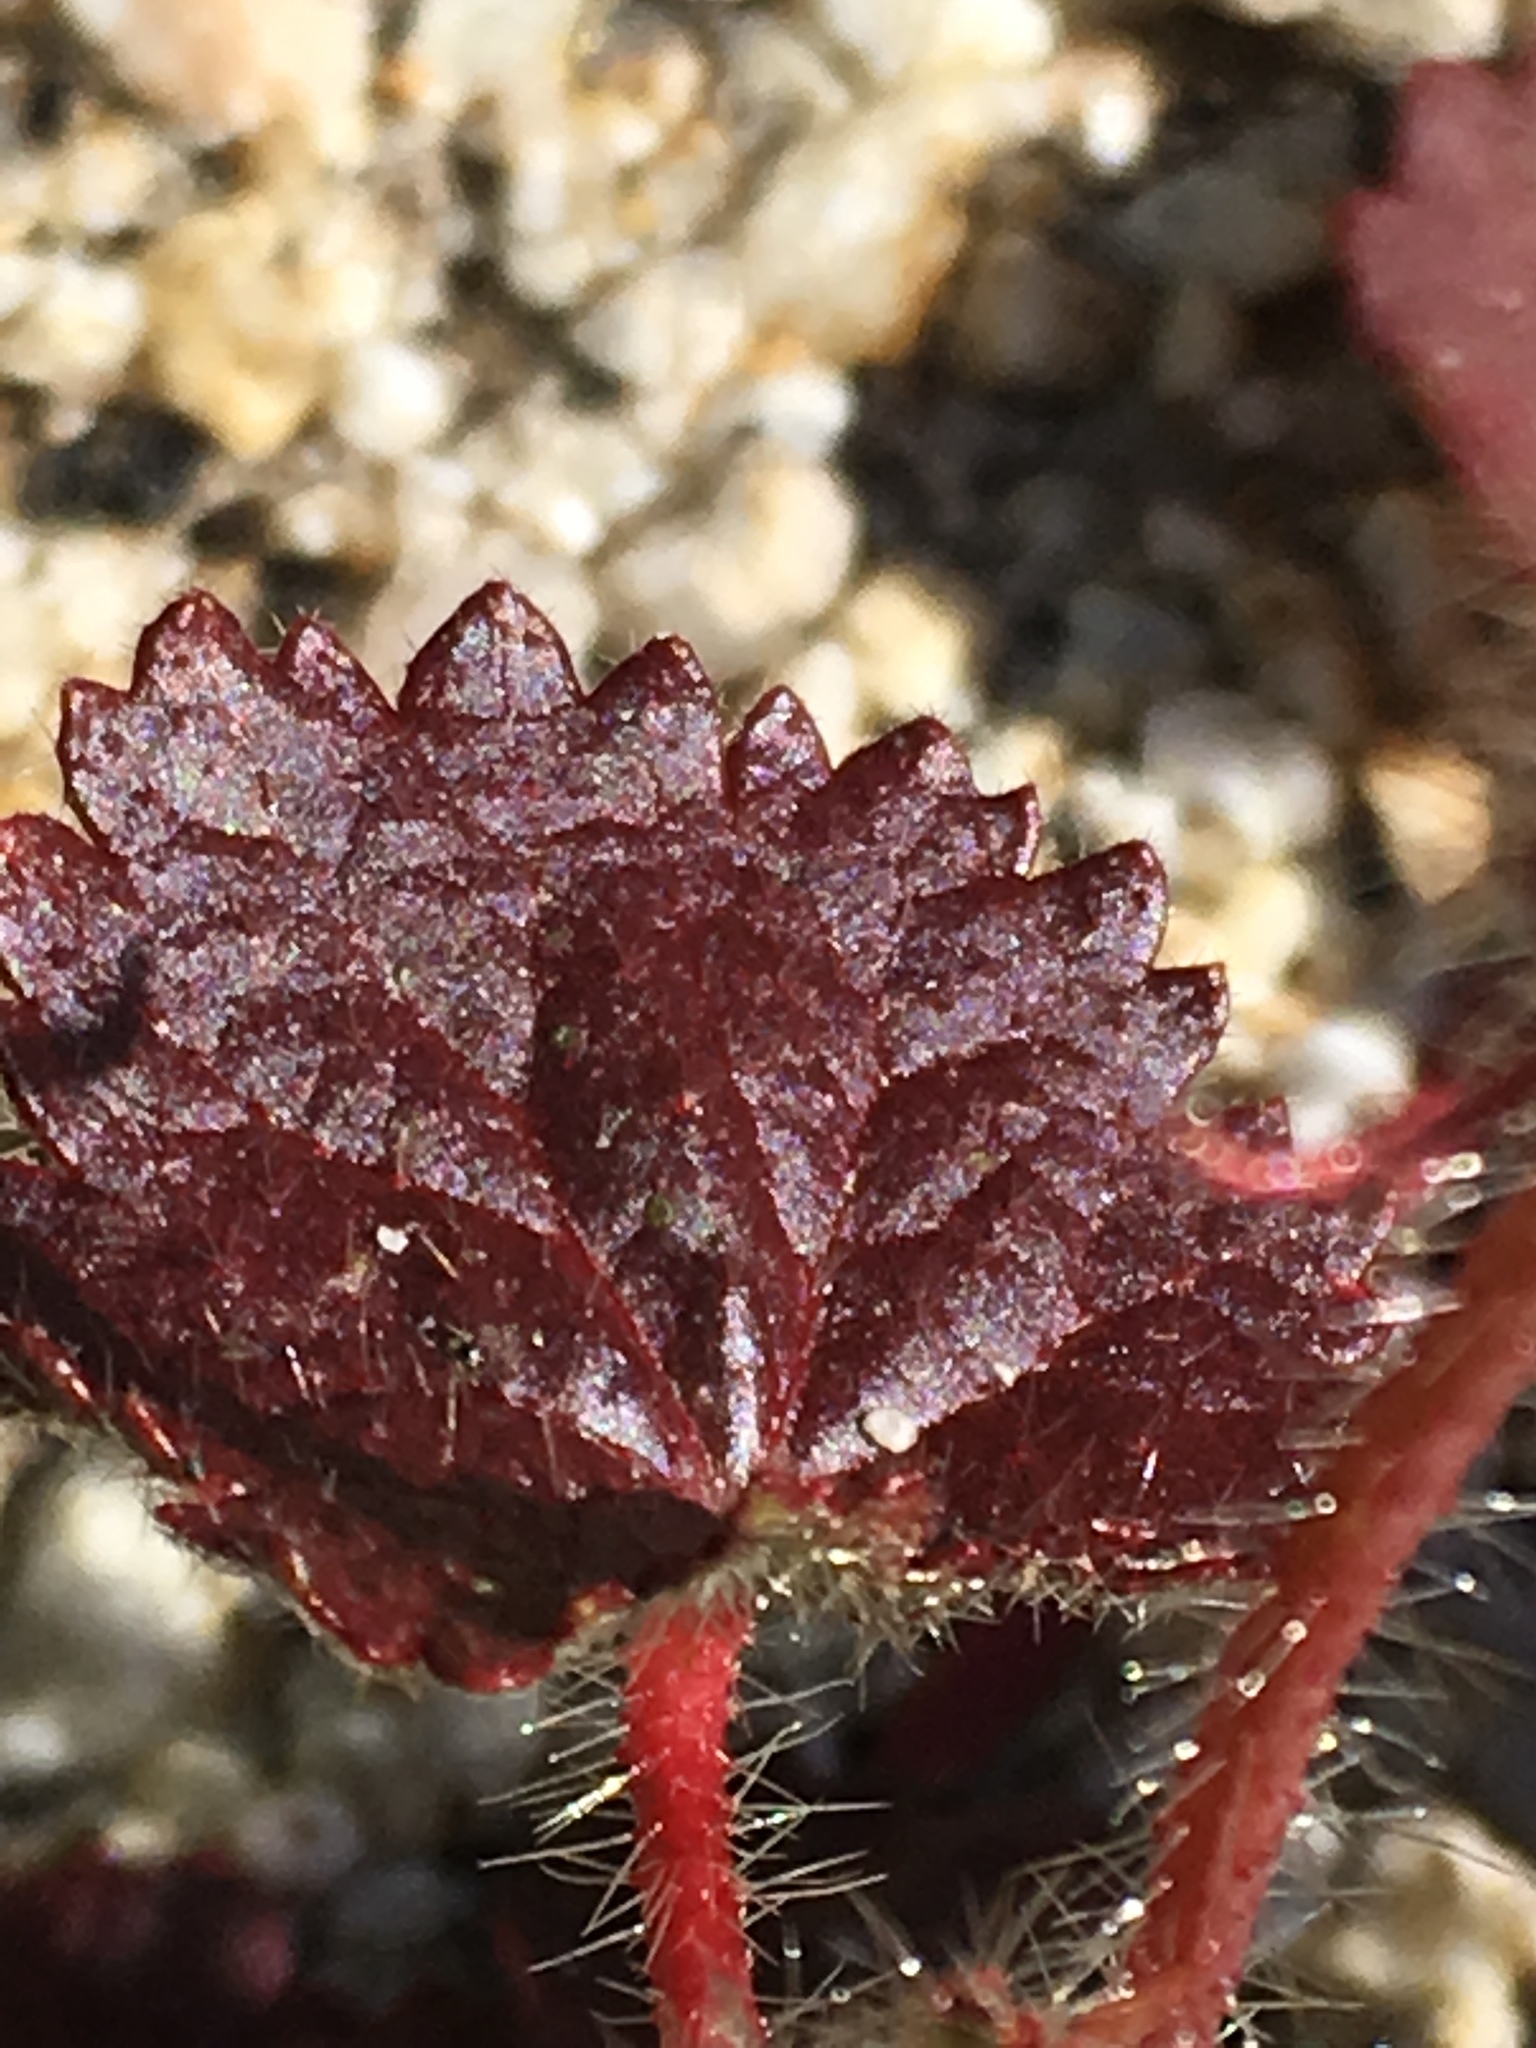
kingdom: Plantae
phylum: Tracheophyta
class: Magnoliopsida
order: Malvales
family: Malvaceae
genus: Eremalche
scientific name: Eremalche rotundifolia
